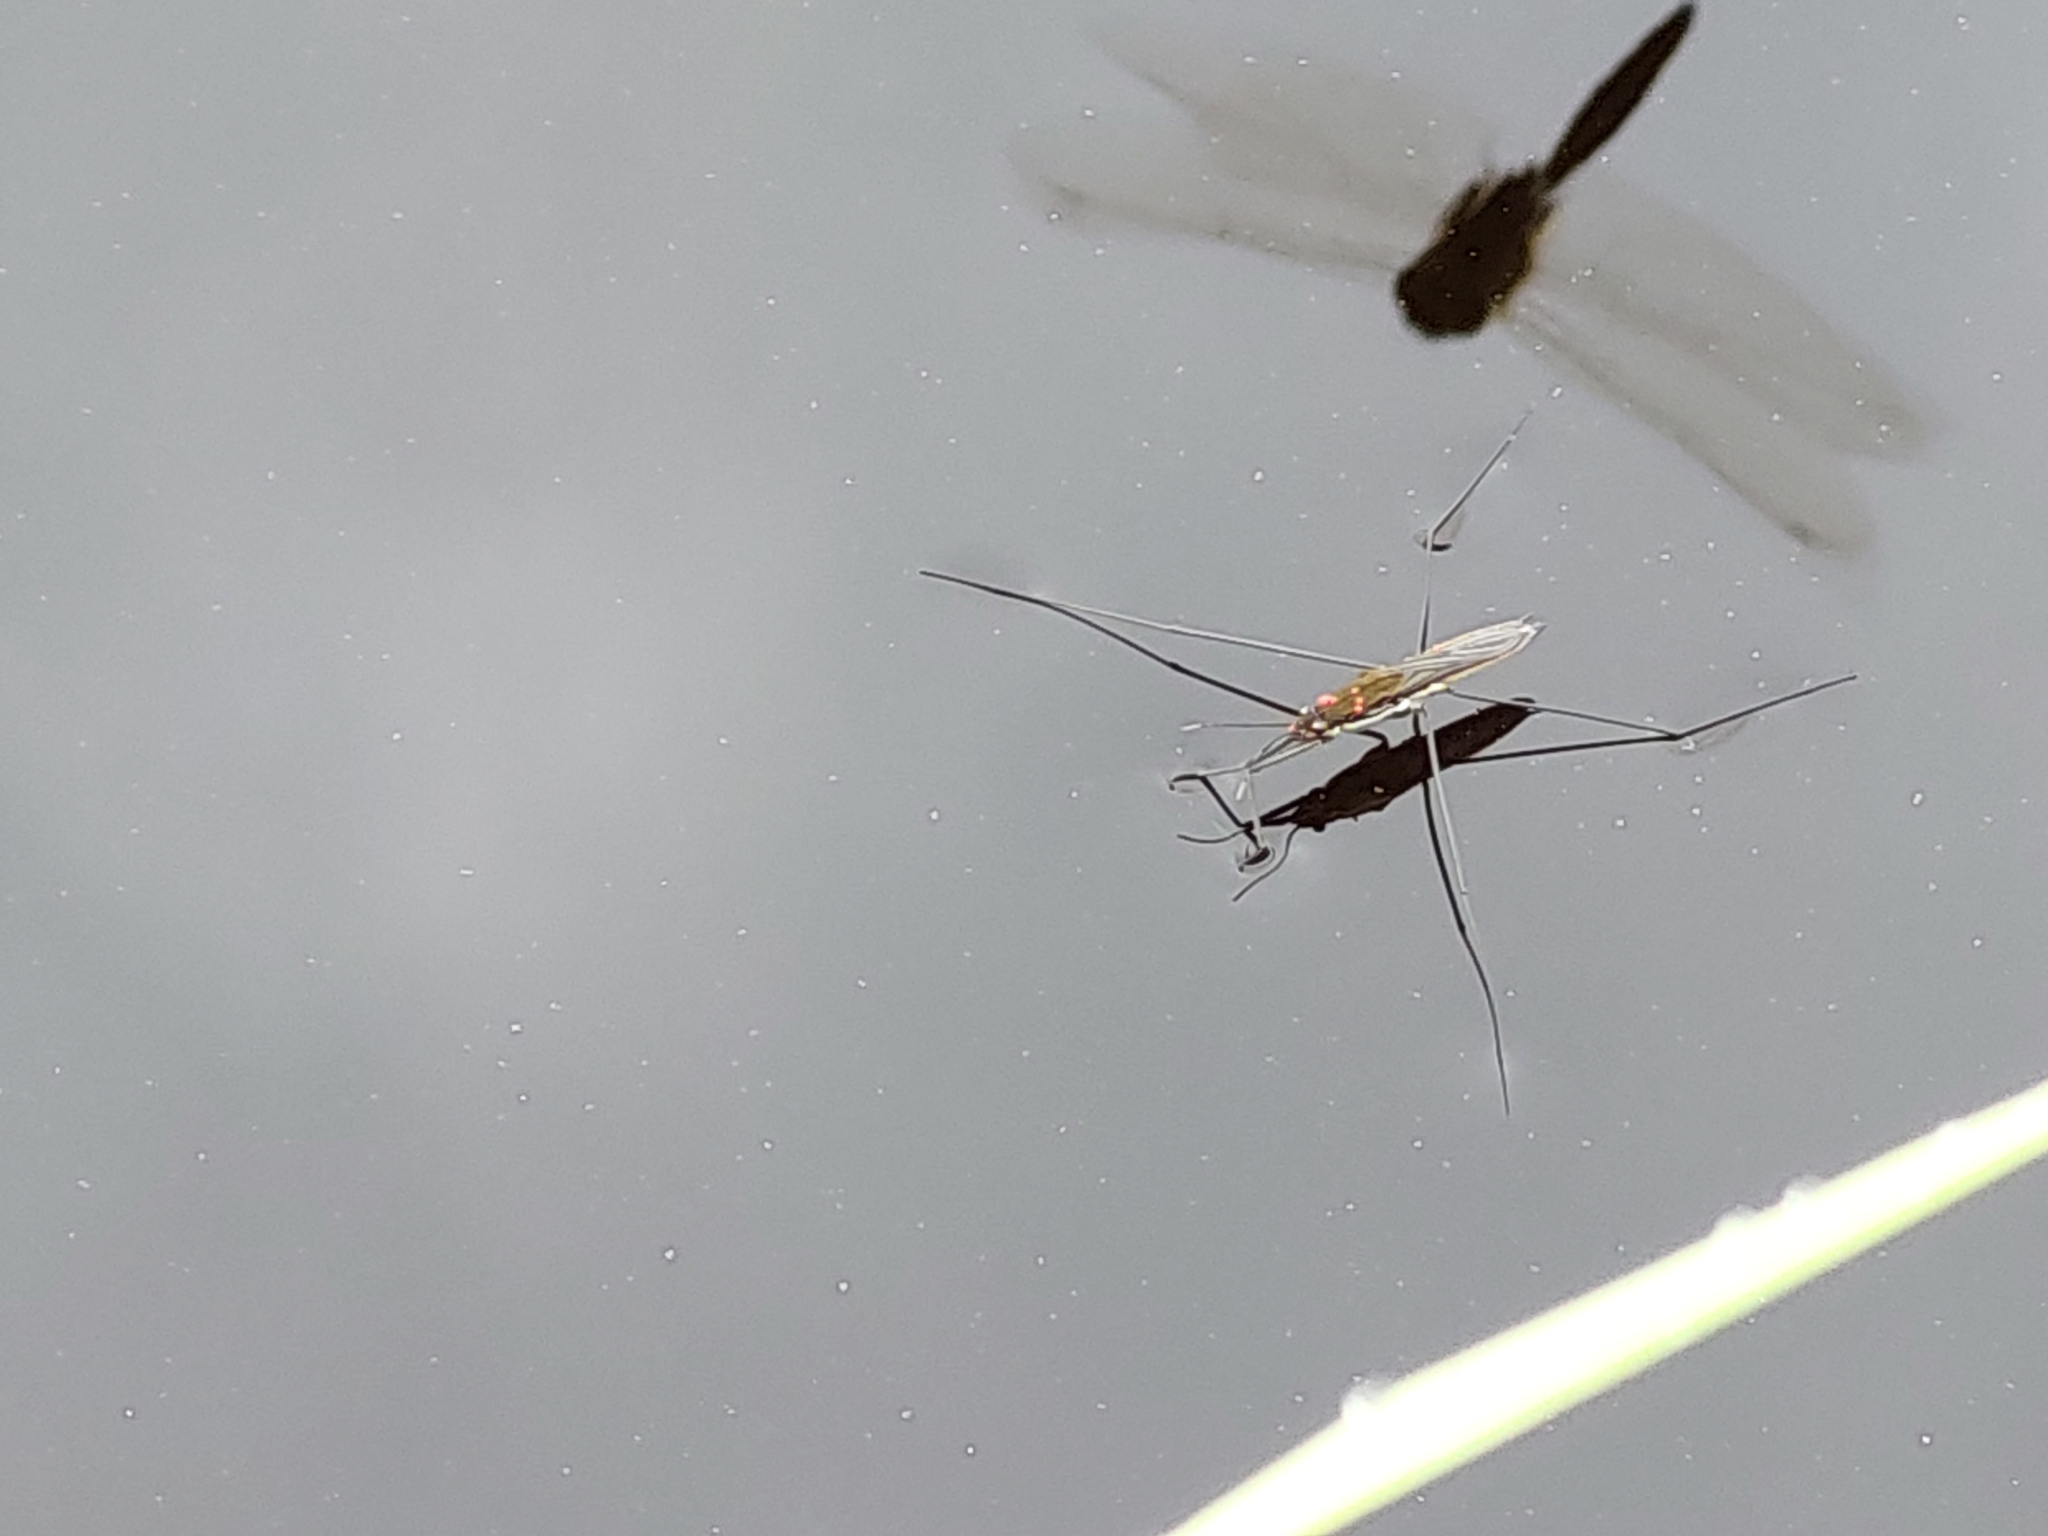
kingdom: Animalia
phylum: Arthropoda
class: Insecta
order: Hemiptera
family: Gerridae
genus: Aquarius
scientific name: Aquarius paludum
